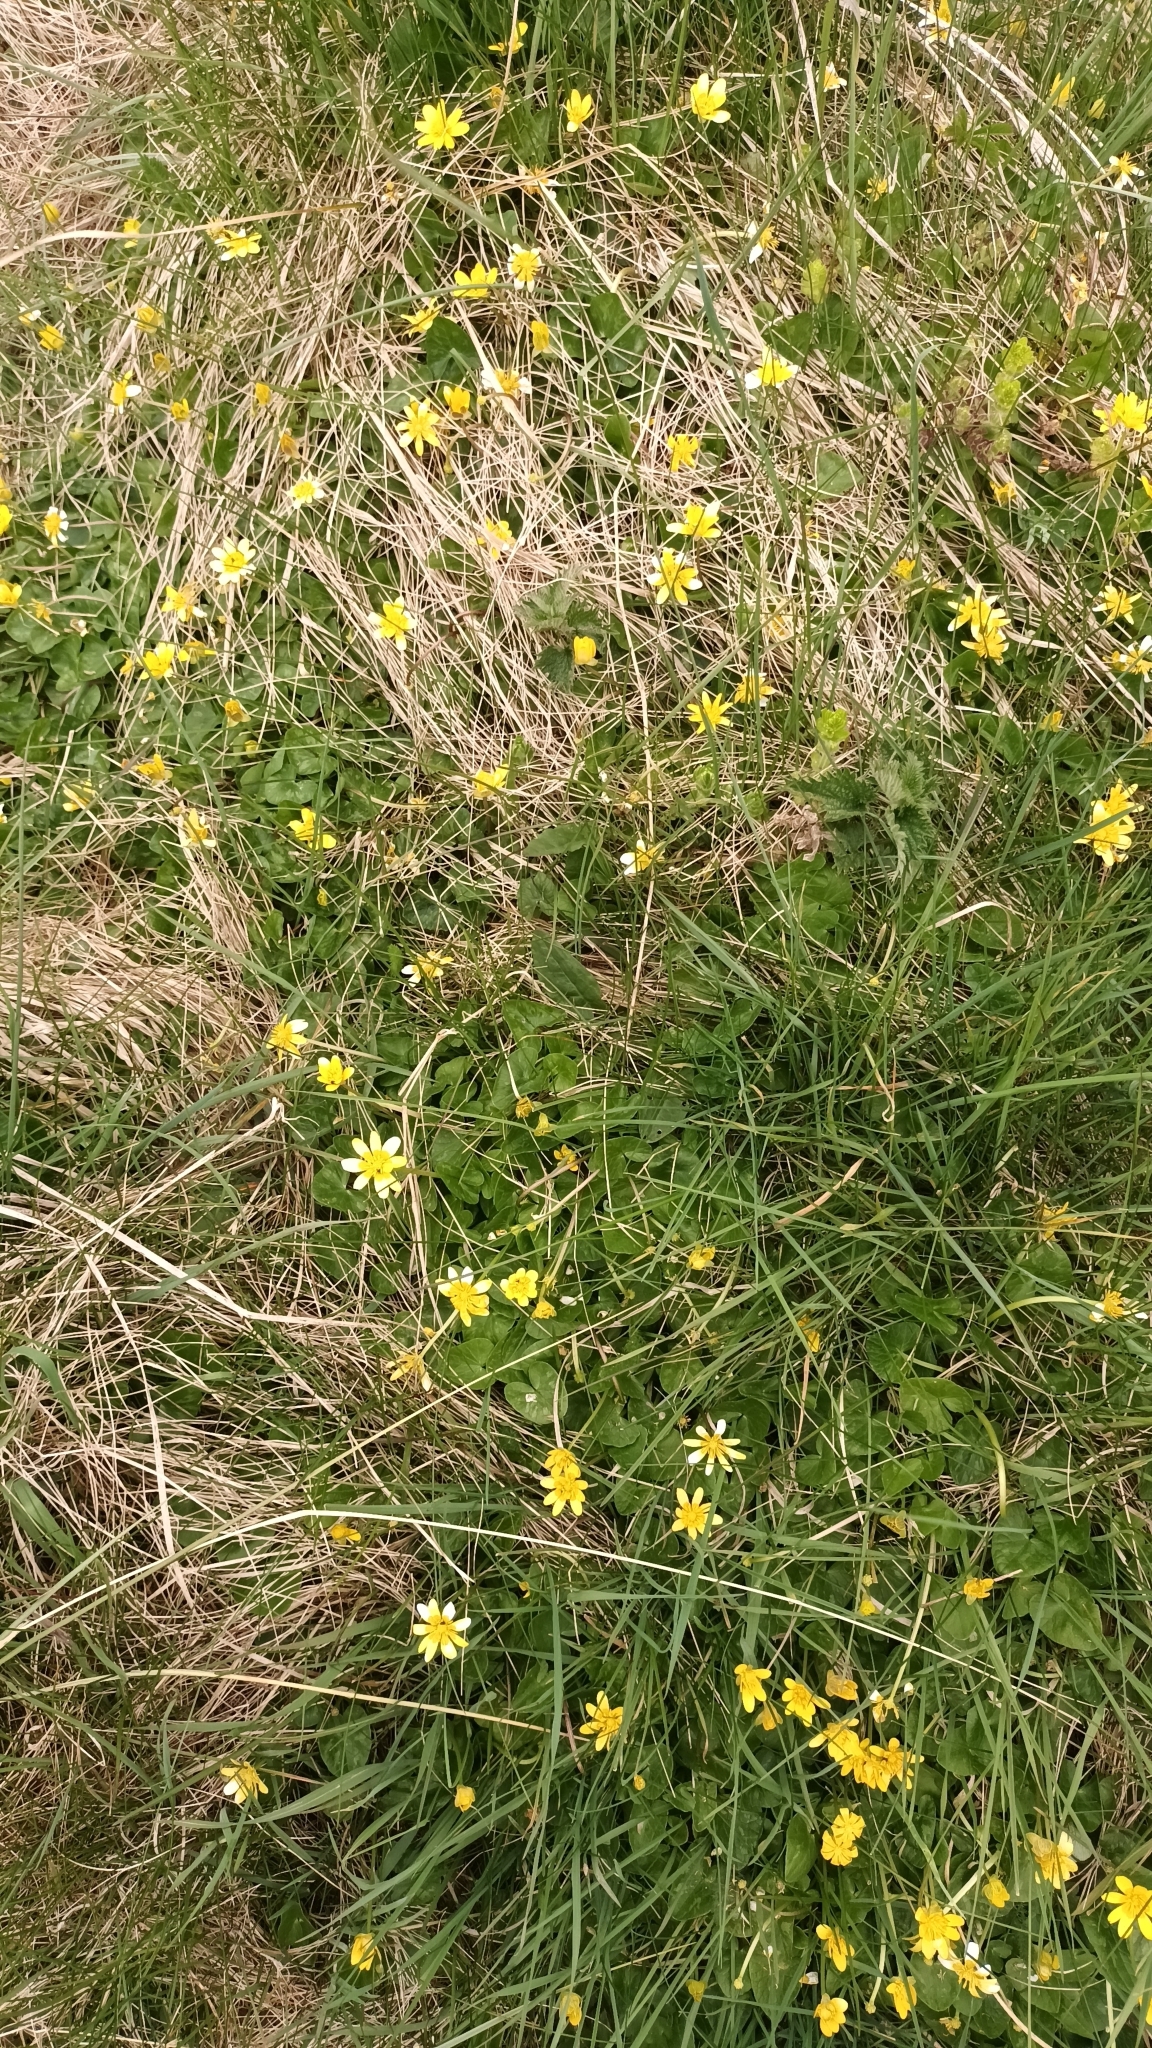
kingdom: Plantae
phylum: Tracheophyta
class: Magnoliopsida
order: Ranunculales
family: Ranunculaceae
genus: Ficaria
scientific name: Ficaria verna
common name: Lesser celandine
